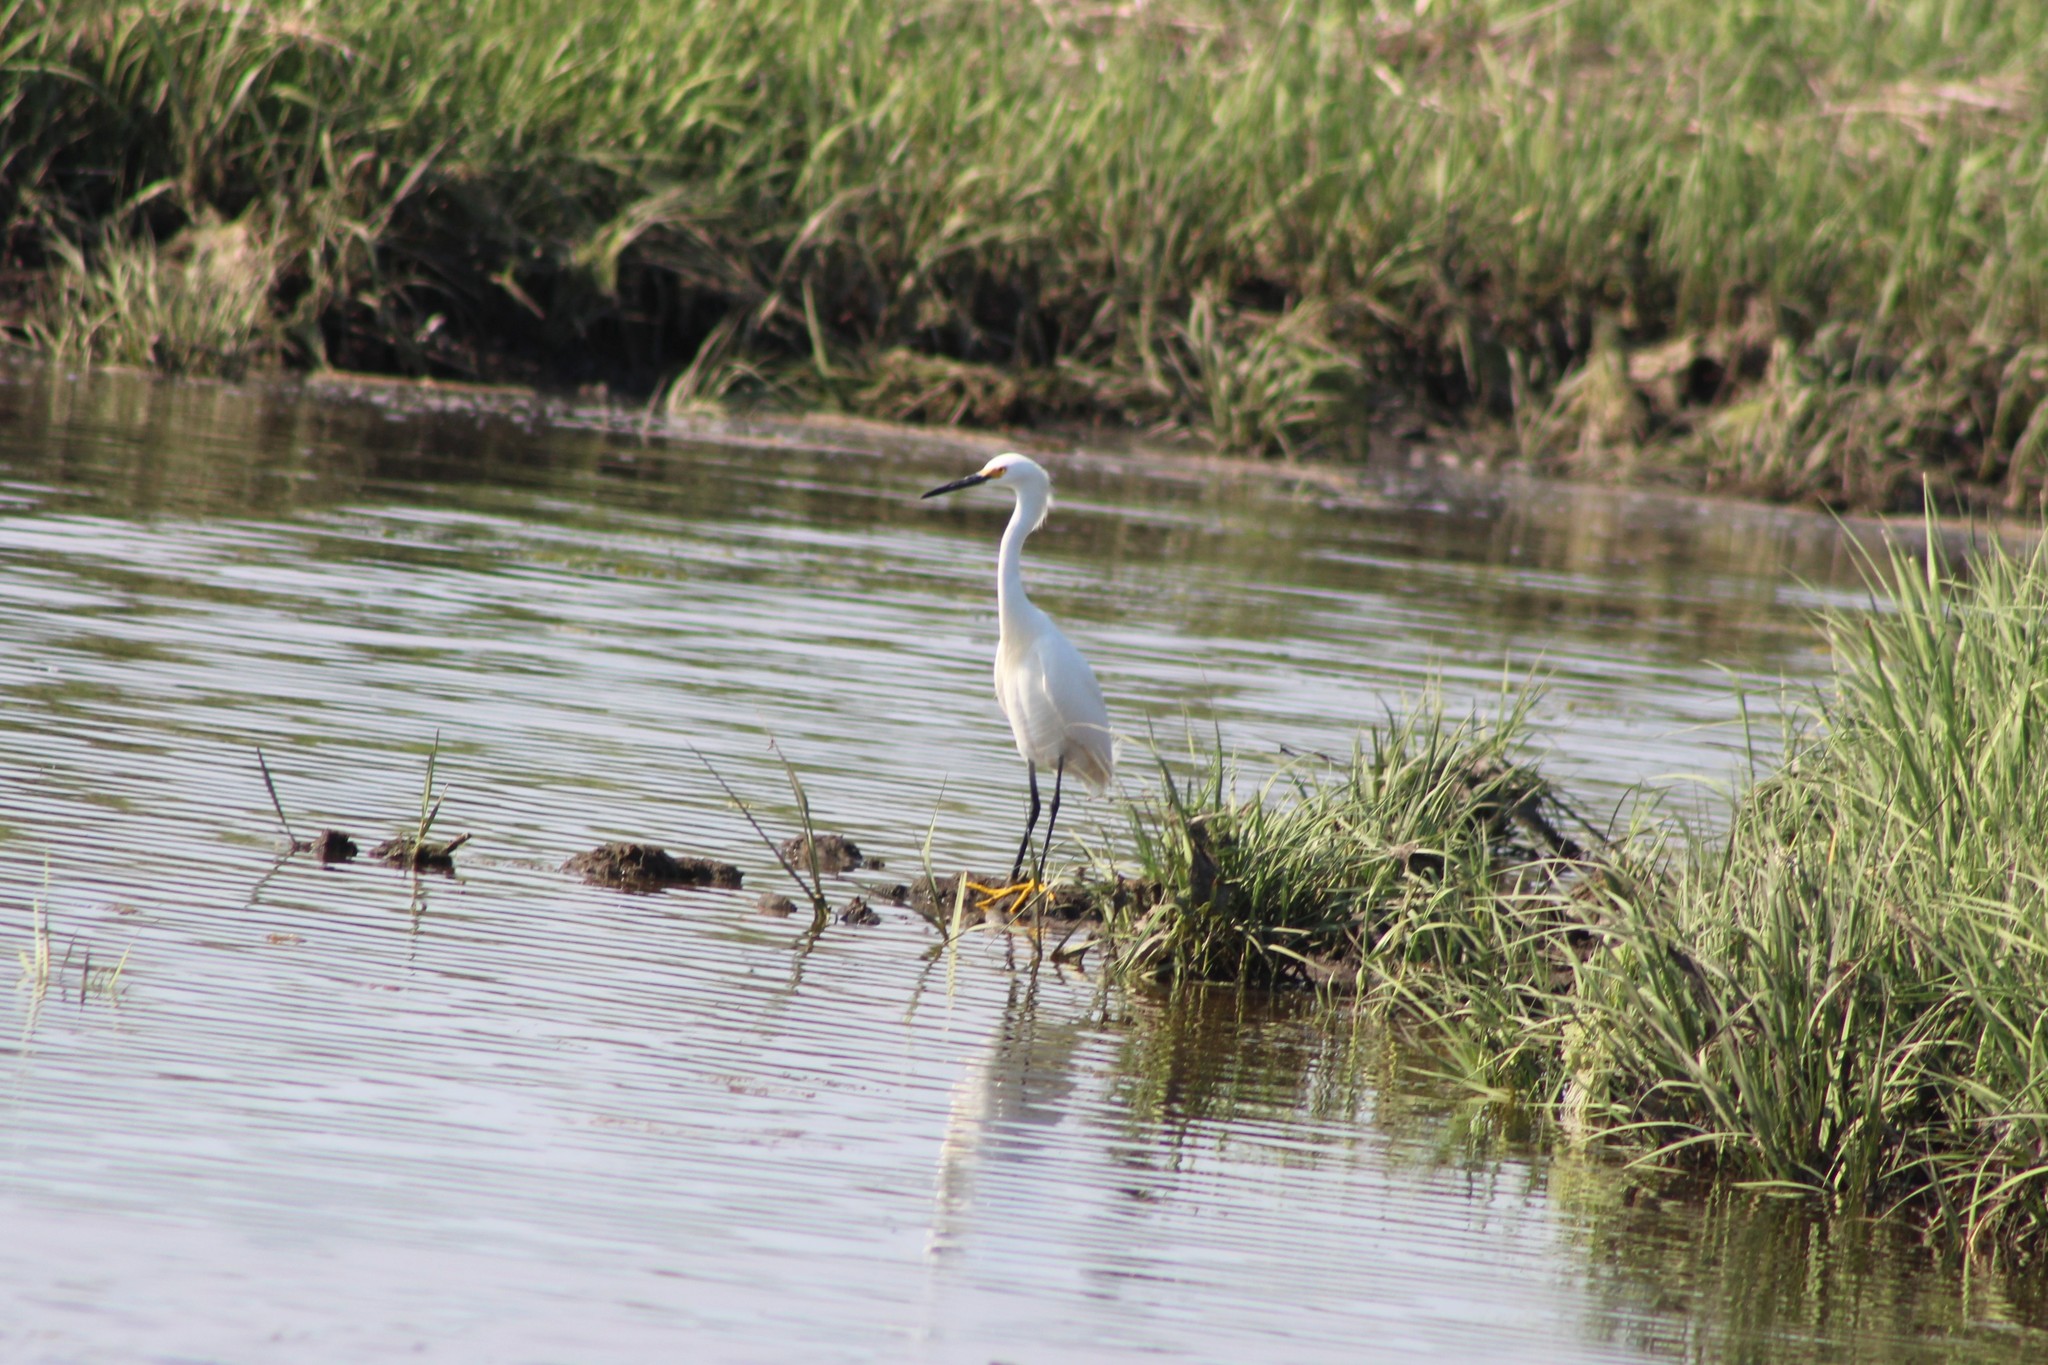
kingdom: Animalia
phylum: Chordata
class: Aves
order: Pelecaniformes
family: Ardeidae
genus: Egretta
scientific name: Egretta thula
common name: Snowy egret
